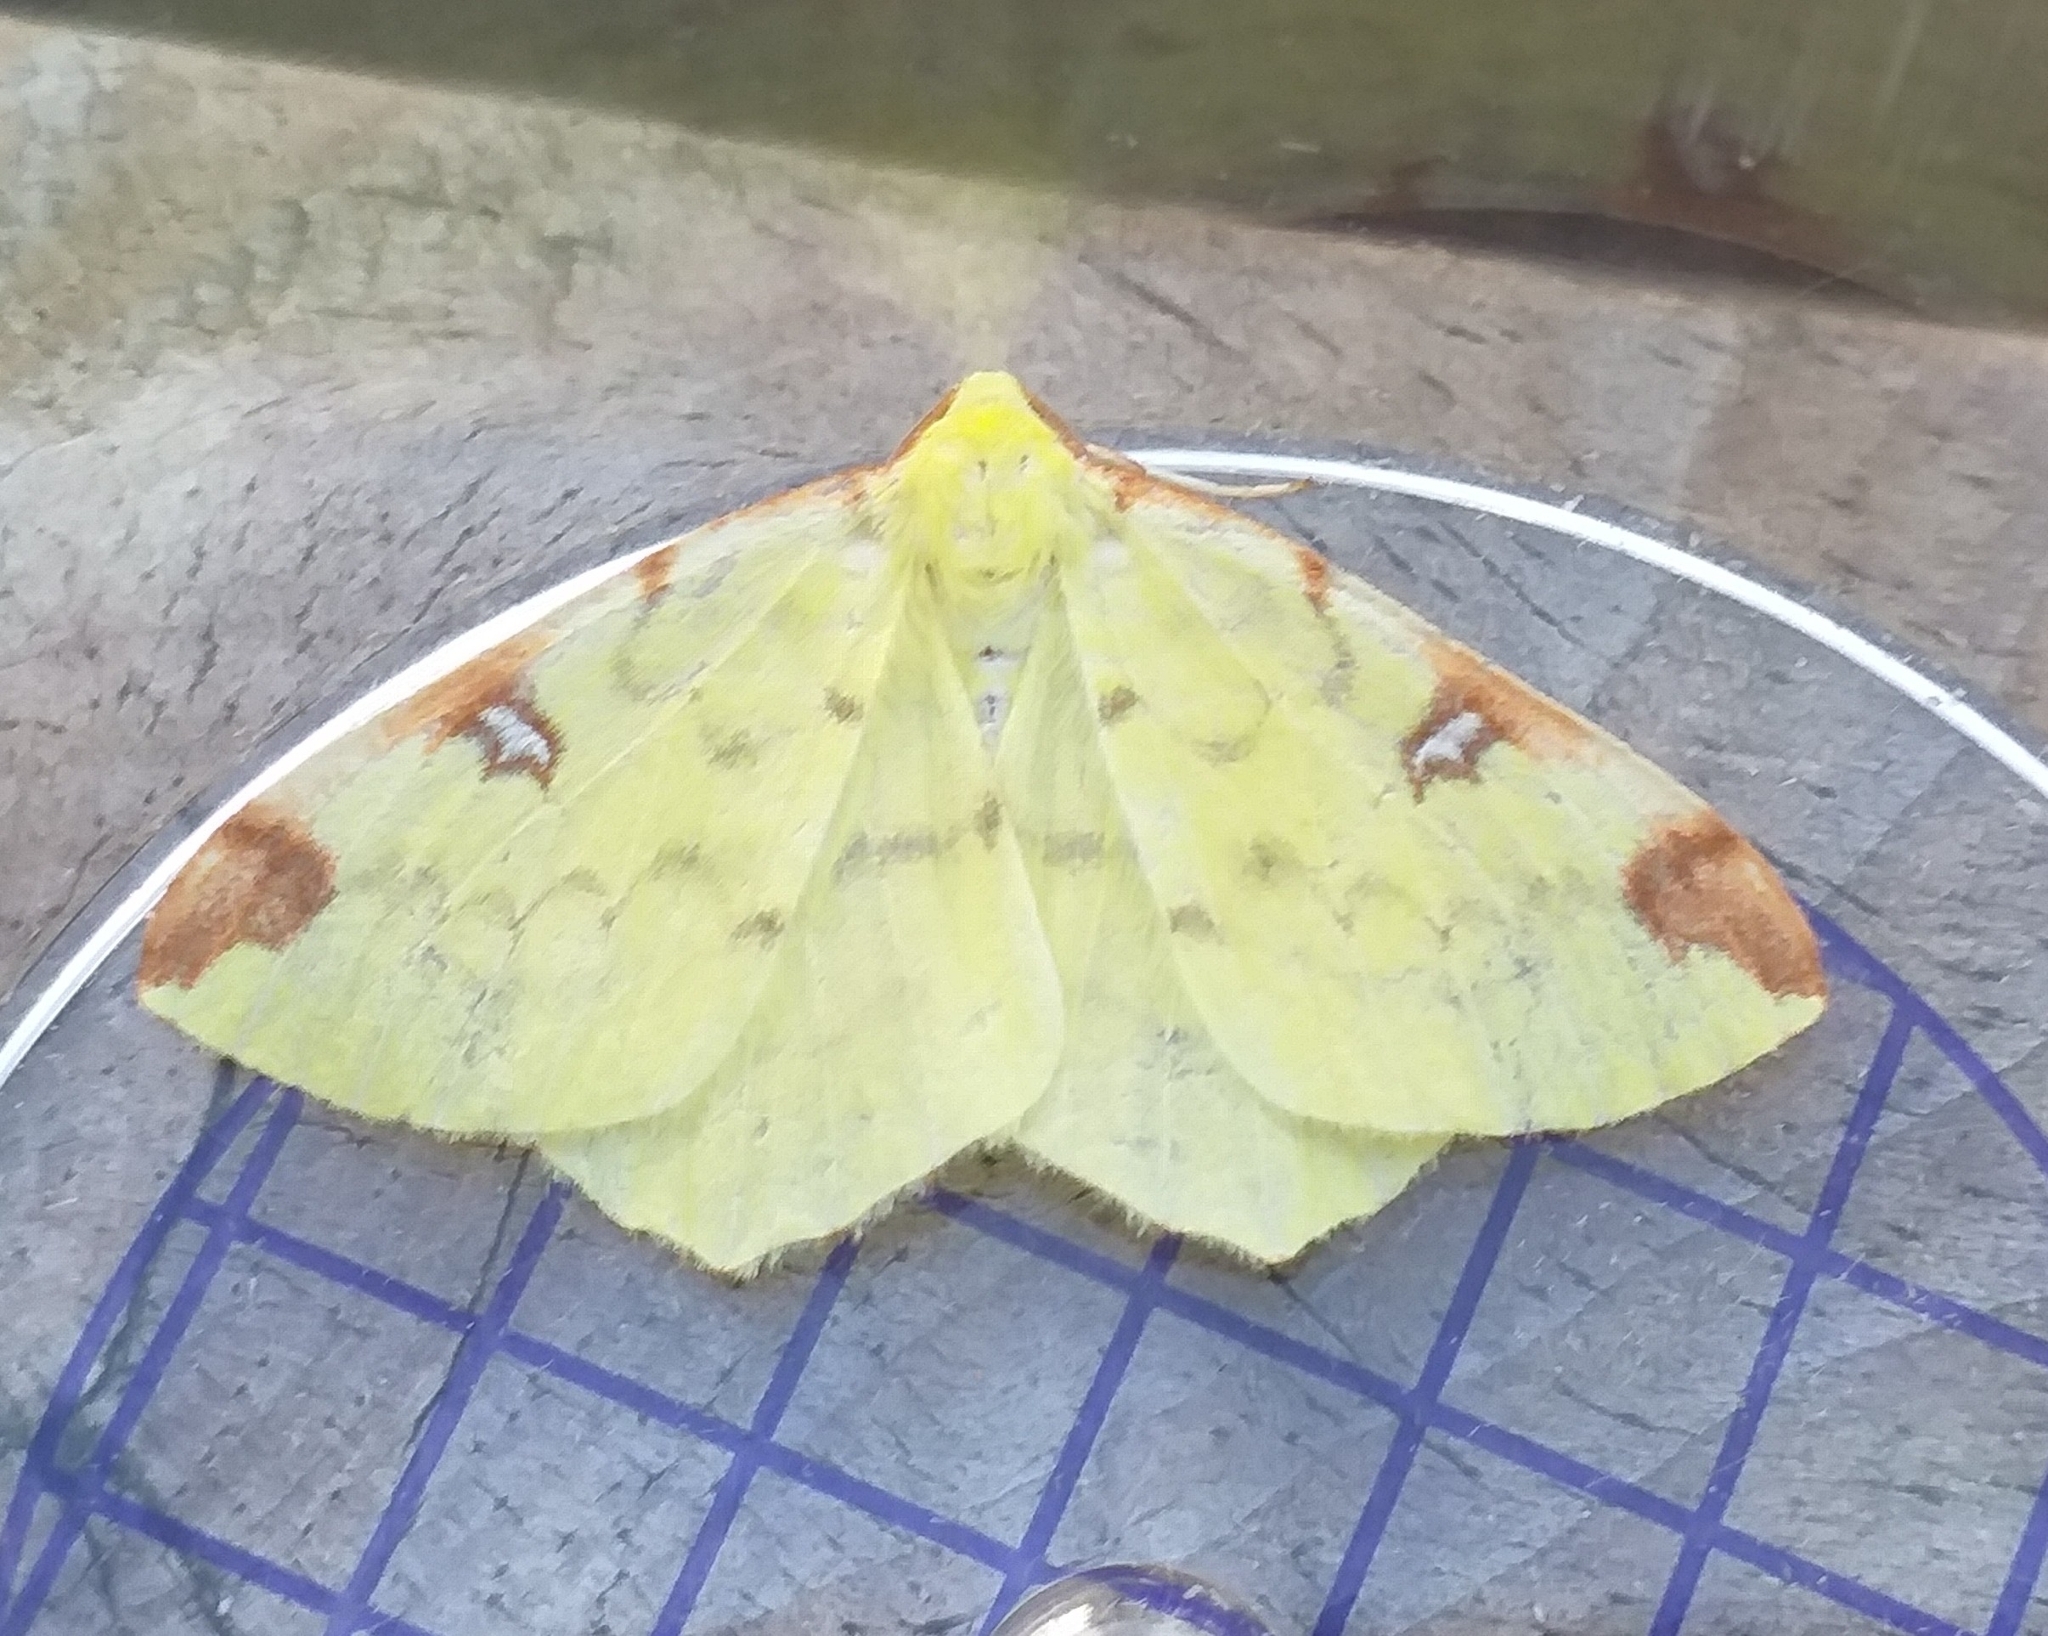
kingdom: Animalia
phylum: Arthropoda
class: Insecta
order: Lepidoptera
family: Geometridae
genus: Opisthograptis
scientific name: Opisthograptis luteolata
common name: Brimstone moth
